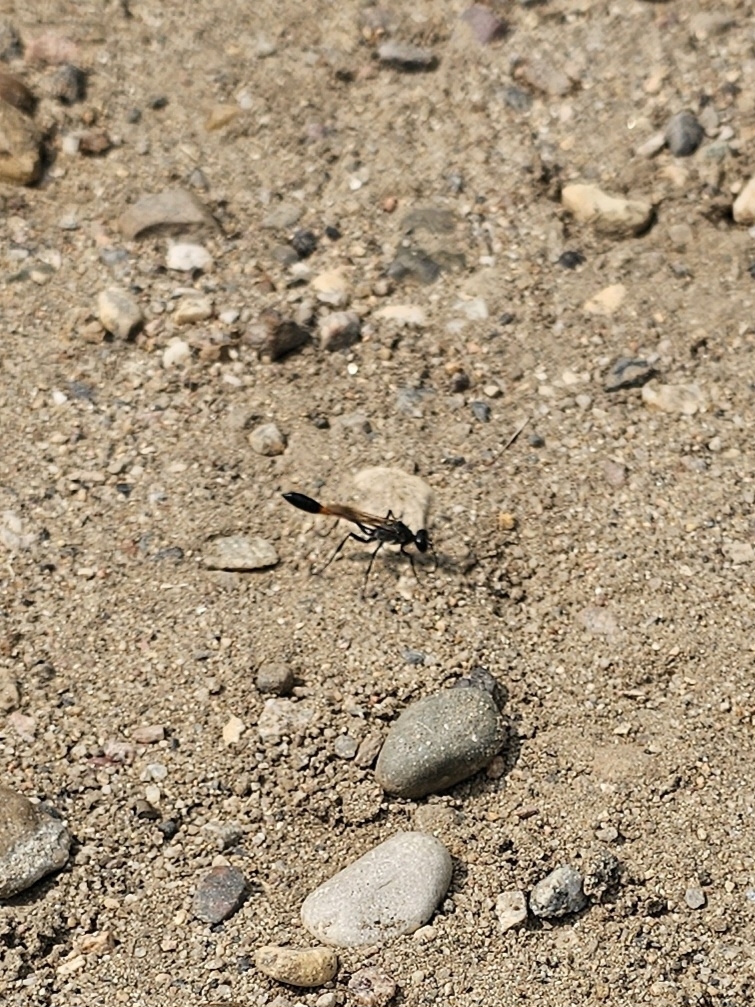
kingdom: Animalia
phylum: Arthropoda
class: Insecta
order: Hymenoptera
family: Sphecidae
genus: Ammophila
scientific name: Ammophila aberti
